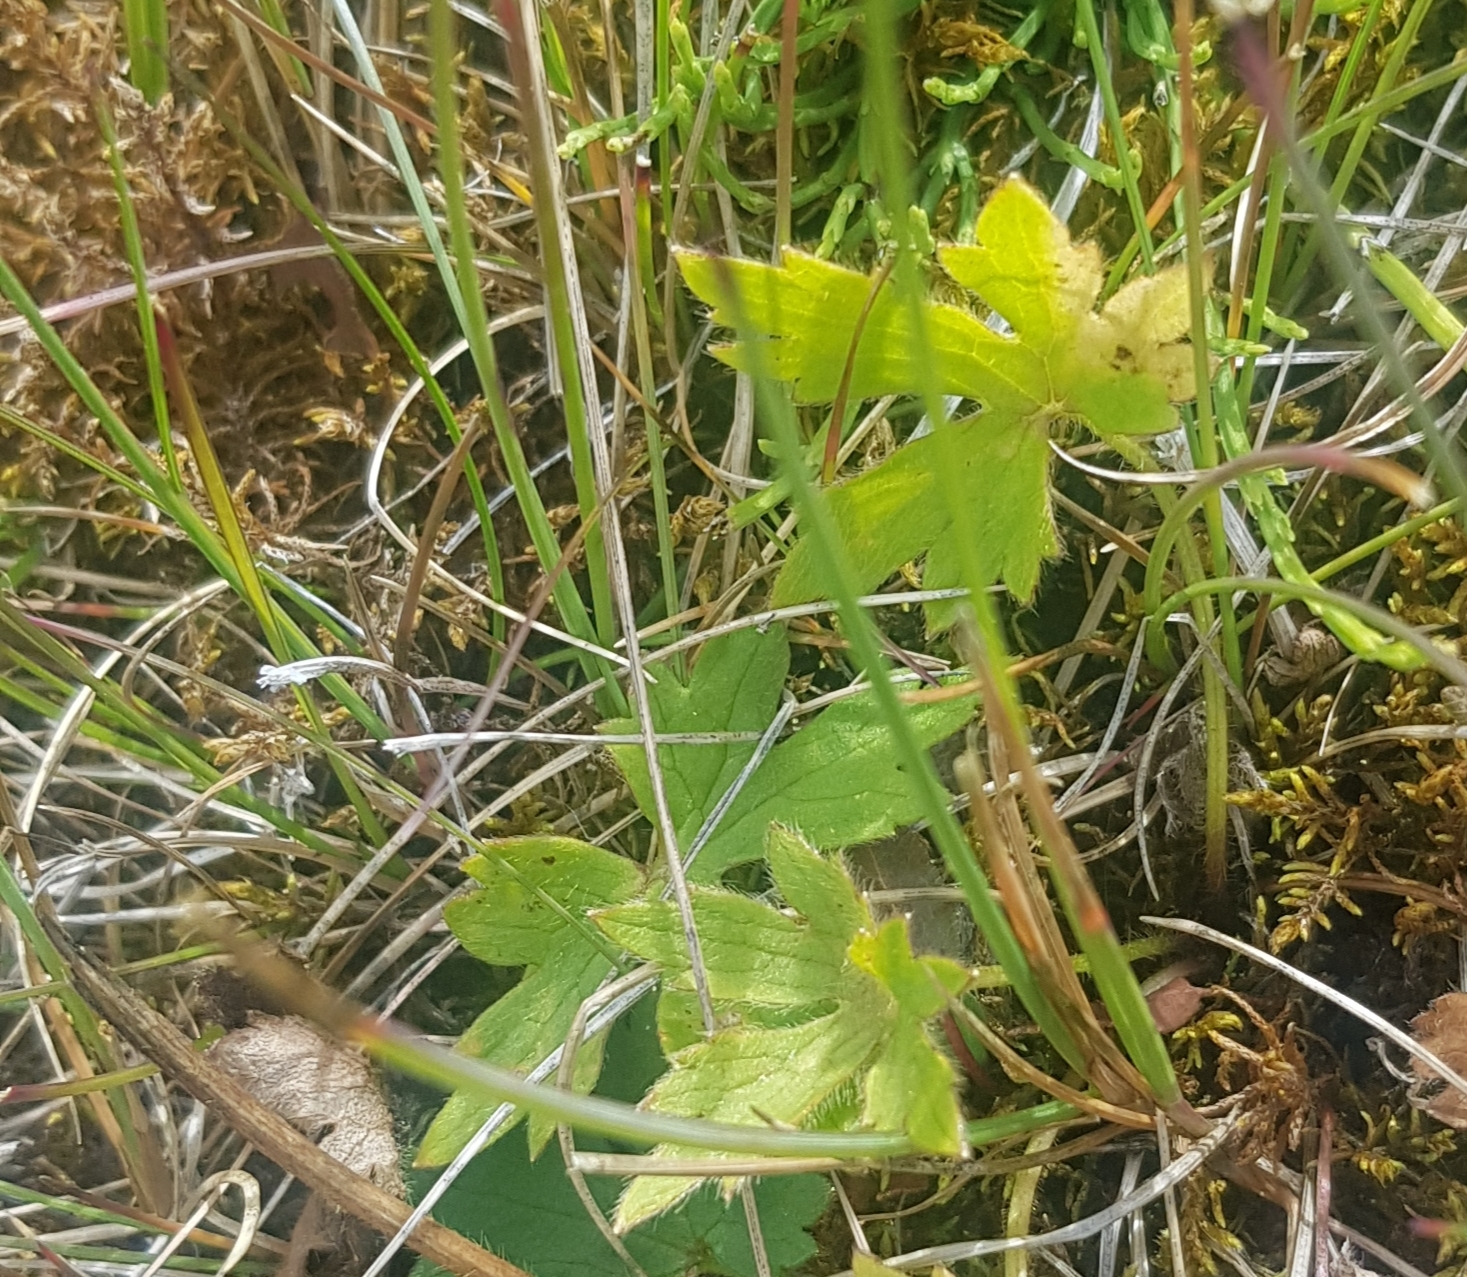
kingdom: Plantae
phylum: Tracheophyta
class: Magnoliopsida
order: Ranunculales
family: Ranunculaceae
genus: Ranunculus
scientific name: Ranunculus propinquus
